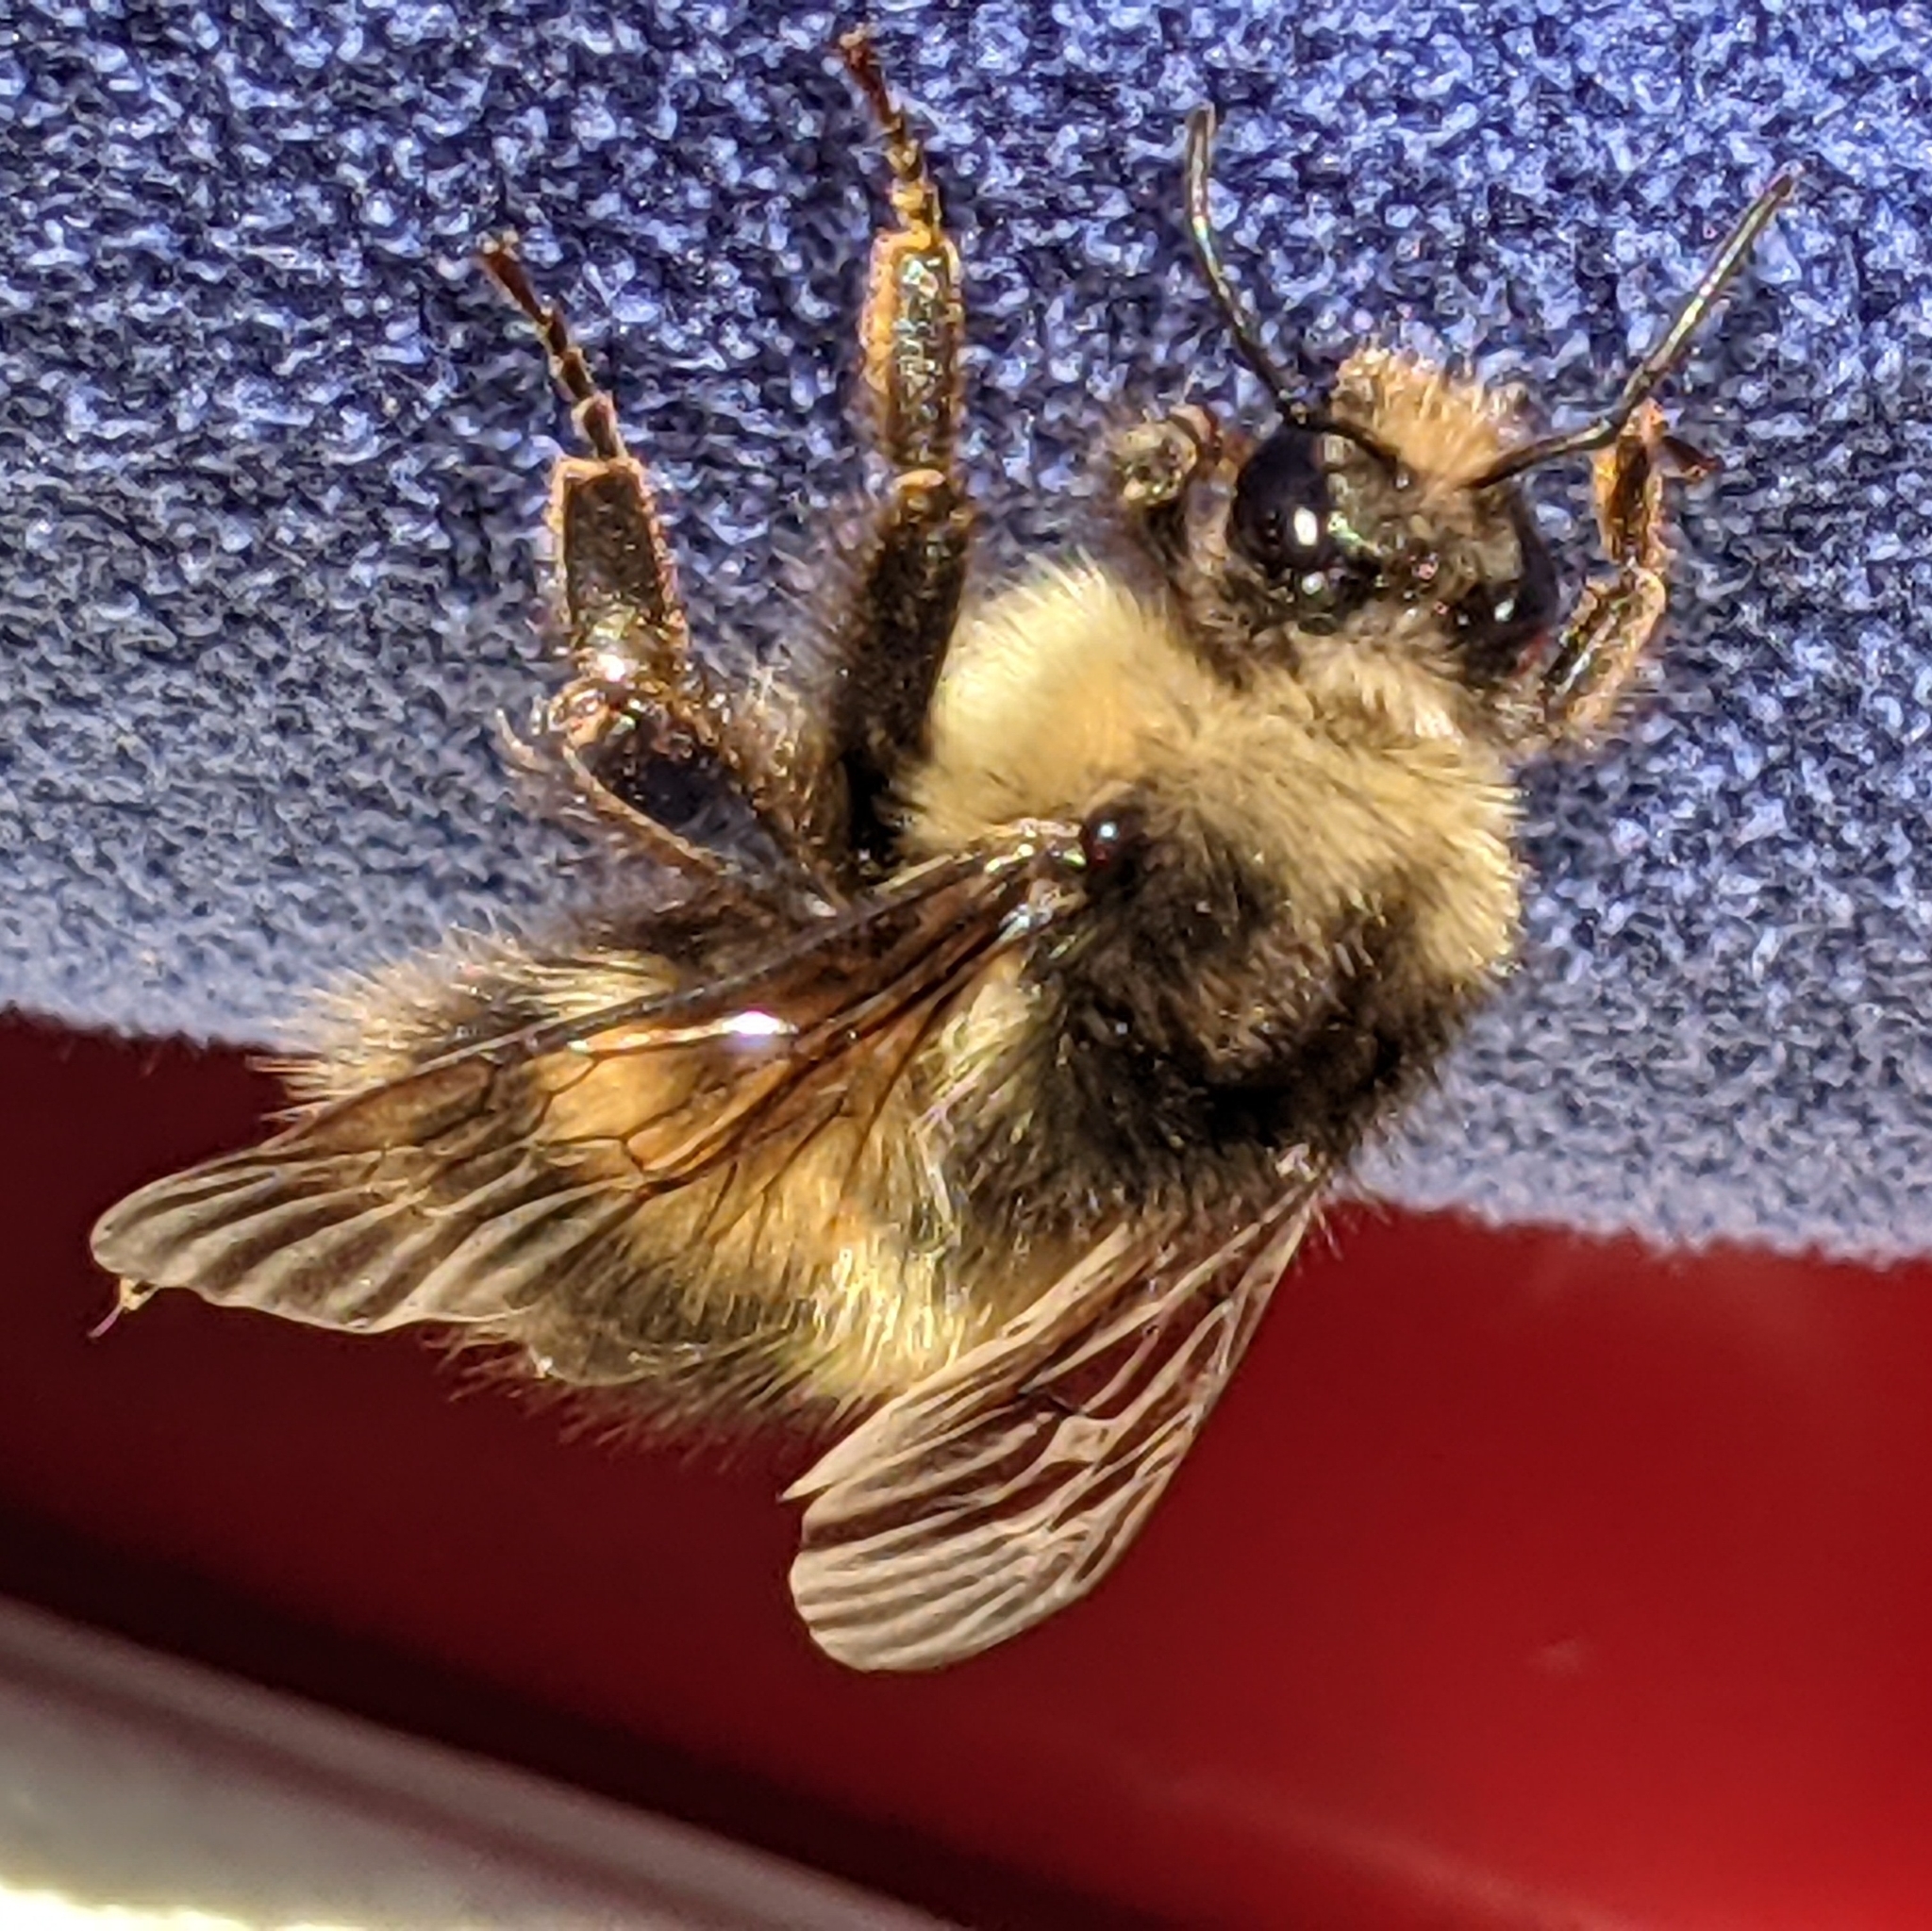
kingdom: Animalia
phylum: Arthropoda
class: Insecta
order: Hymenoptera
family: Apidae
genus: Bombus
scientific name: Bombus sitkensis
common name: Sitka bumble bee
